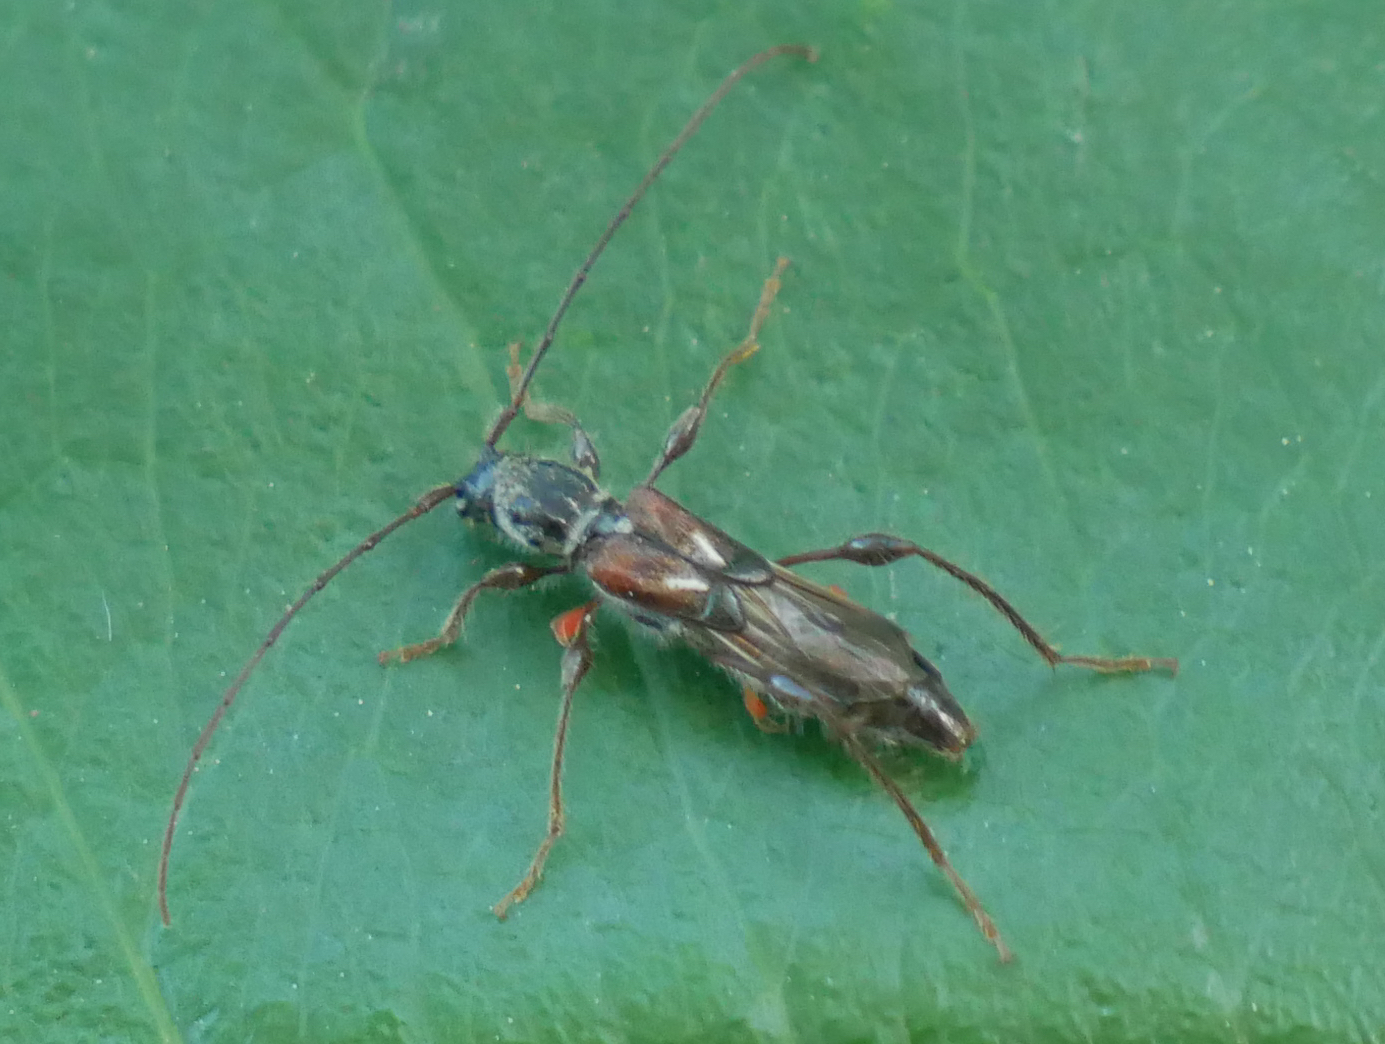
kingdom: Animalia
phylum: Arthropoda
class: Insecta
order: Coleoptera
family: Cerambycidae
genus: Molorchus
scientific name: Molorchus minor
